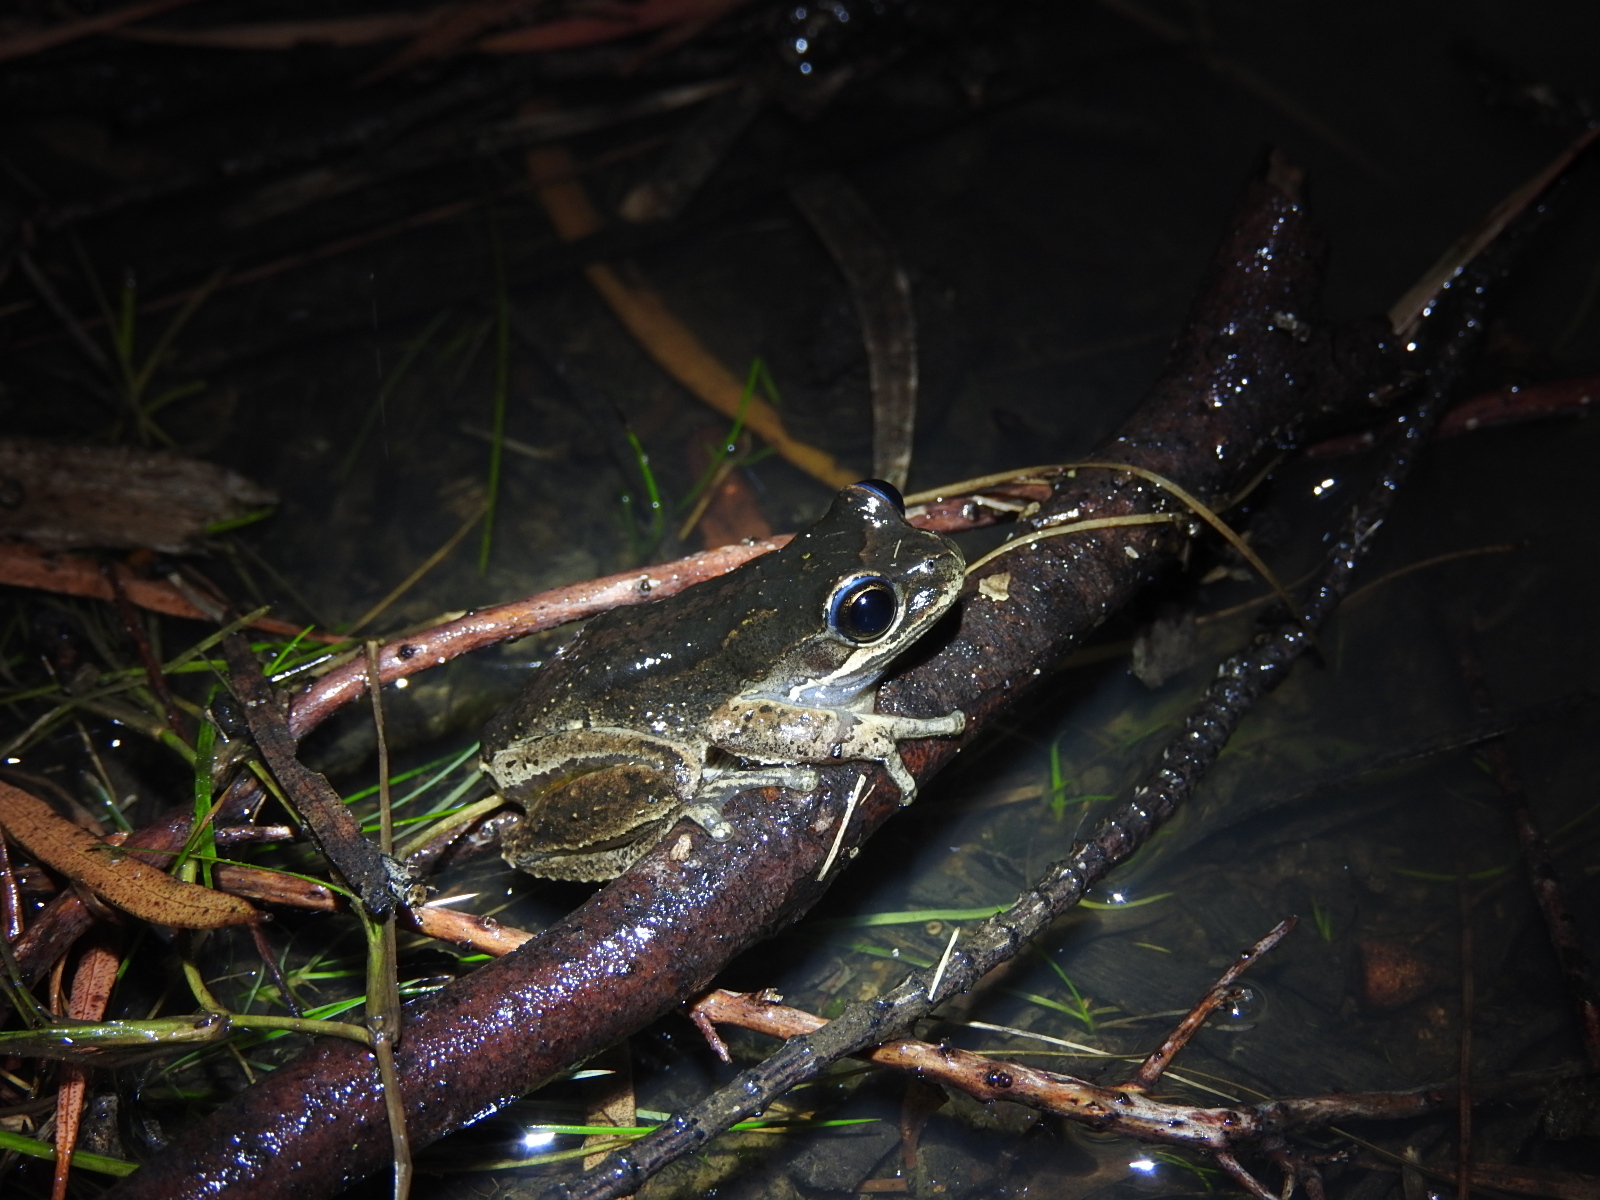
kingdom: Animalia
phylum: Chordata
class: Amphibia
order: Anura
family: Pelodryadidae
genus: Litoria
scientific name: Litoria ewingii
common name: Southern brown tree frog
